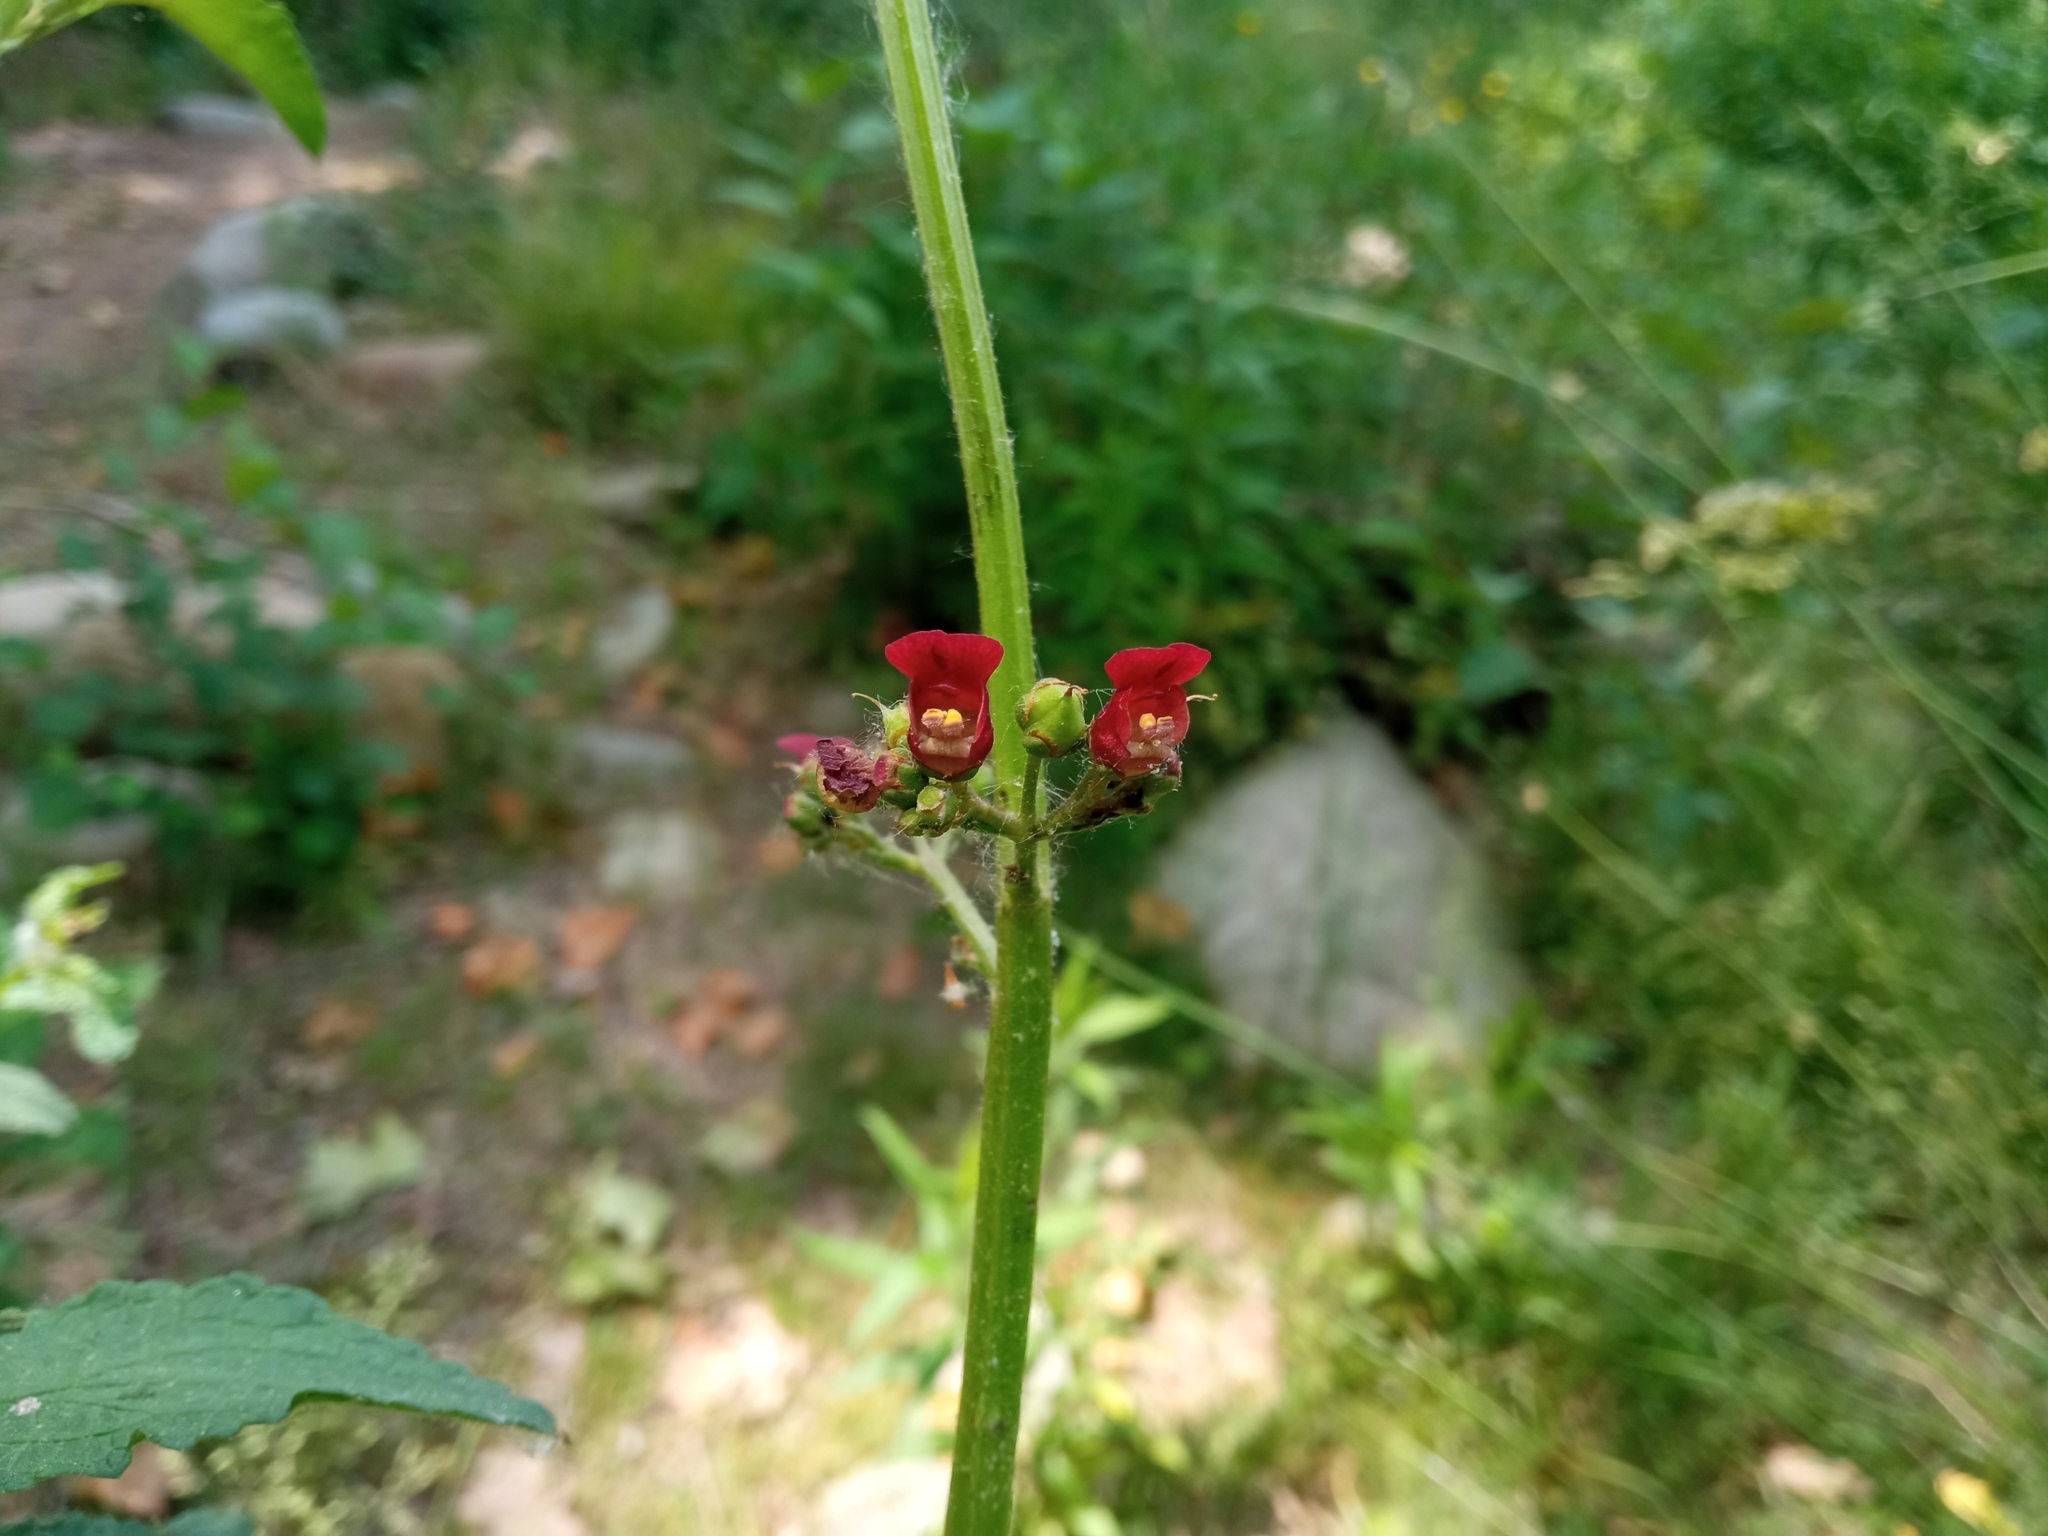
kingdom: Plantae
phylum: Tracheophyta
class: Magnoliopsida
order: Lamiales
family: Scrophulariaceae
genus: Scrophularia
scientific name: Scrophularia auriculata
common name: Water betony
